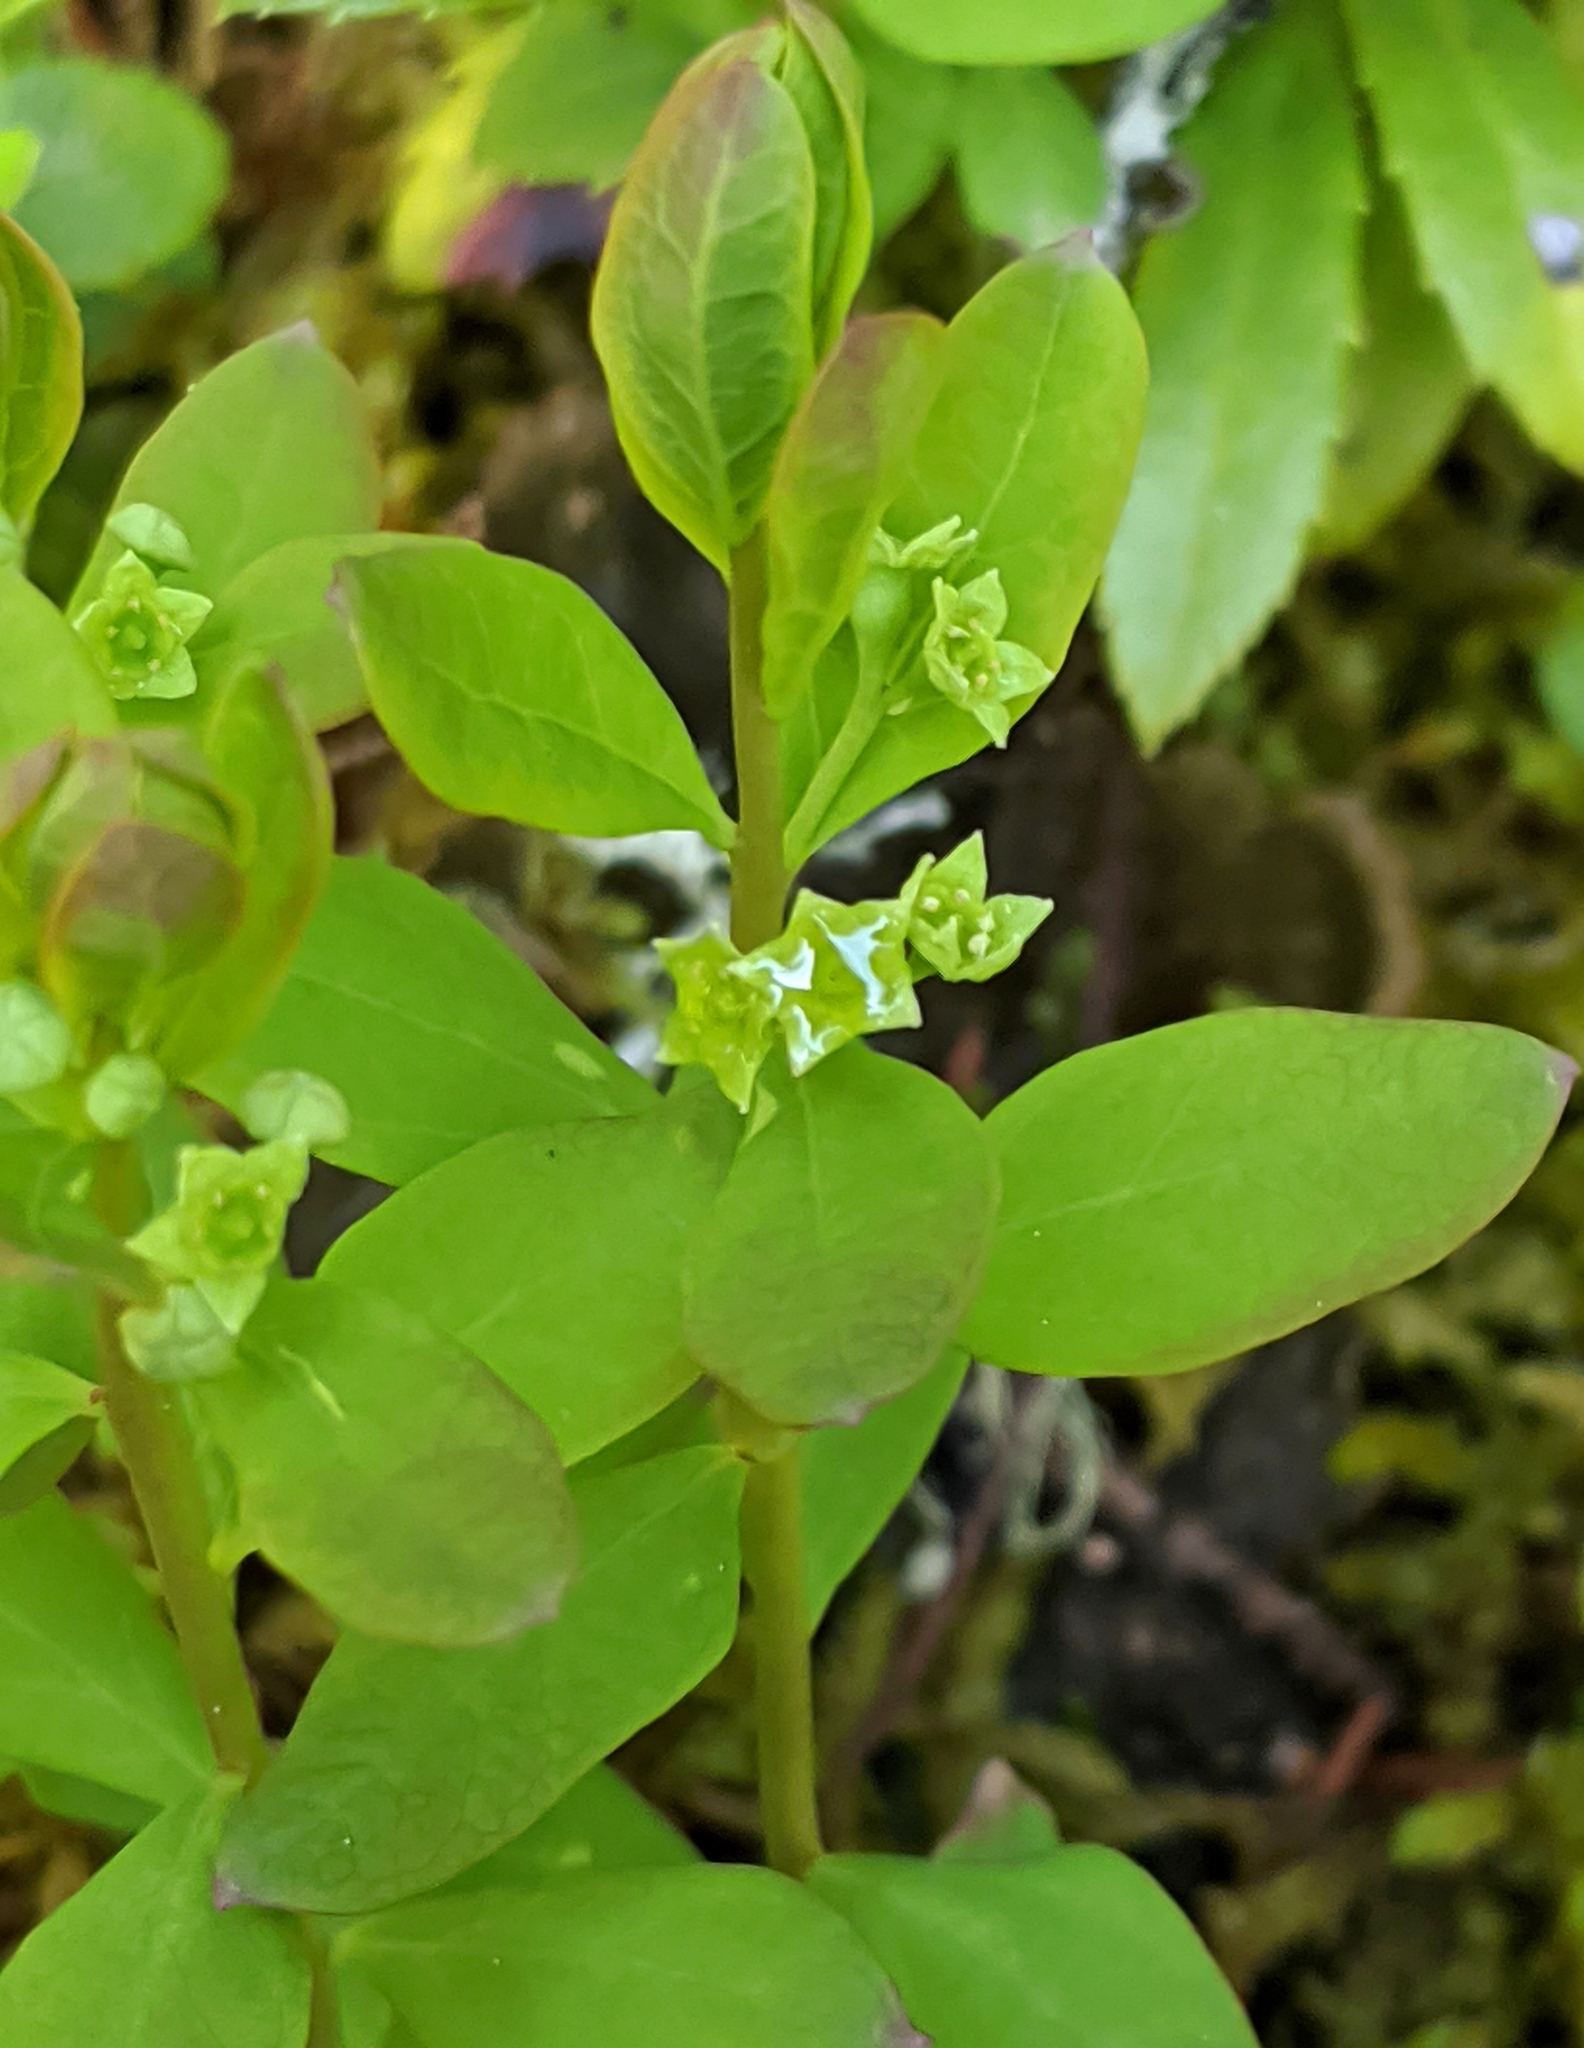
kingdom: Plantae
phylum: Tracheophyta
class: Magnoliopsida
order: Santalales
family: Comandraceae
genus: Geocaulon
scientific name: Geocaulon lividum
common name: Earthberry
